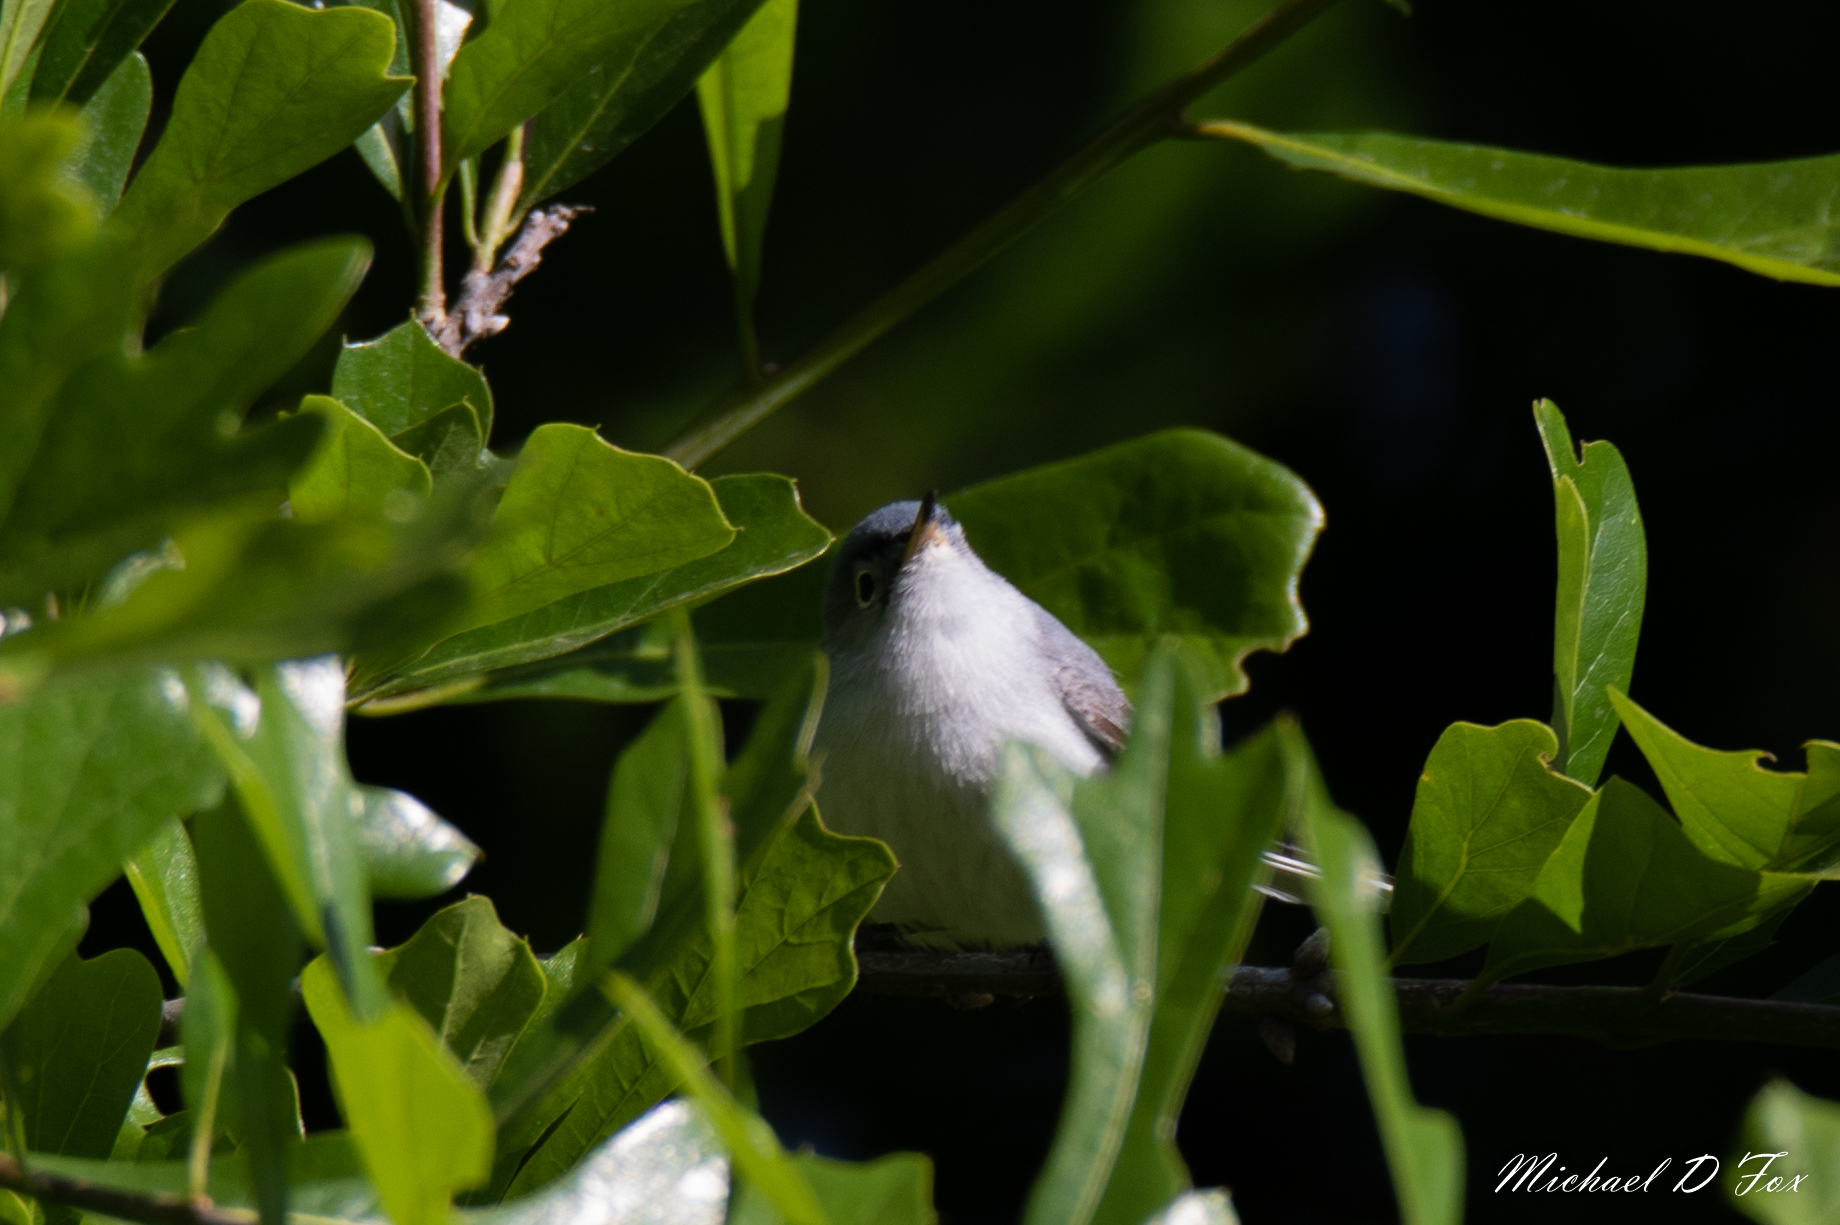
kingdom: Animalia
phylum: Chordata
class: Aves
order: Passeriformes
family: Polioptilidae
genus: Polioptila
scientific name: Polioptila caerulea
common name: Blue-gray gnatcatcher
